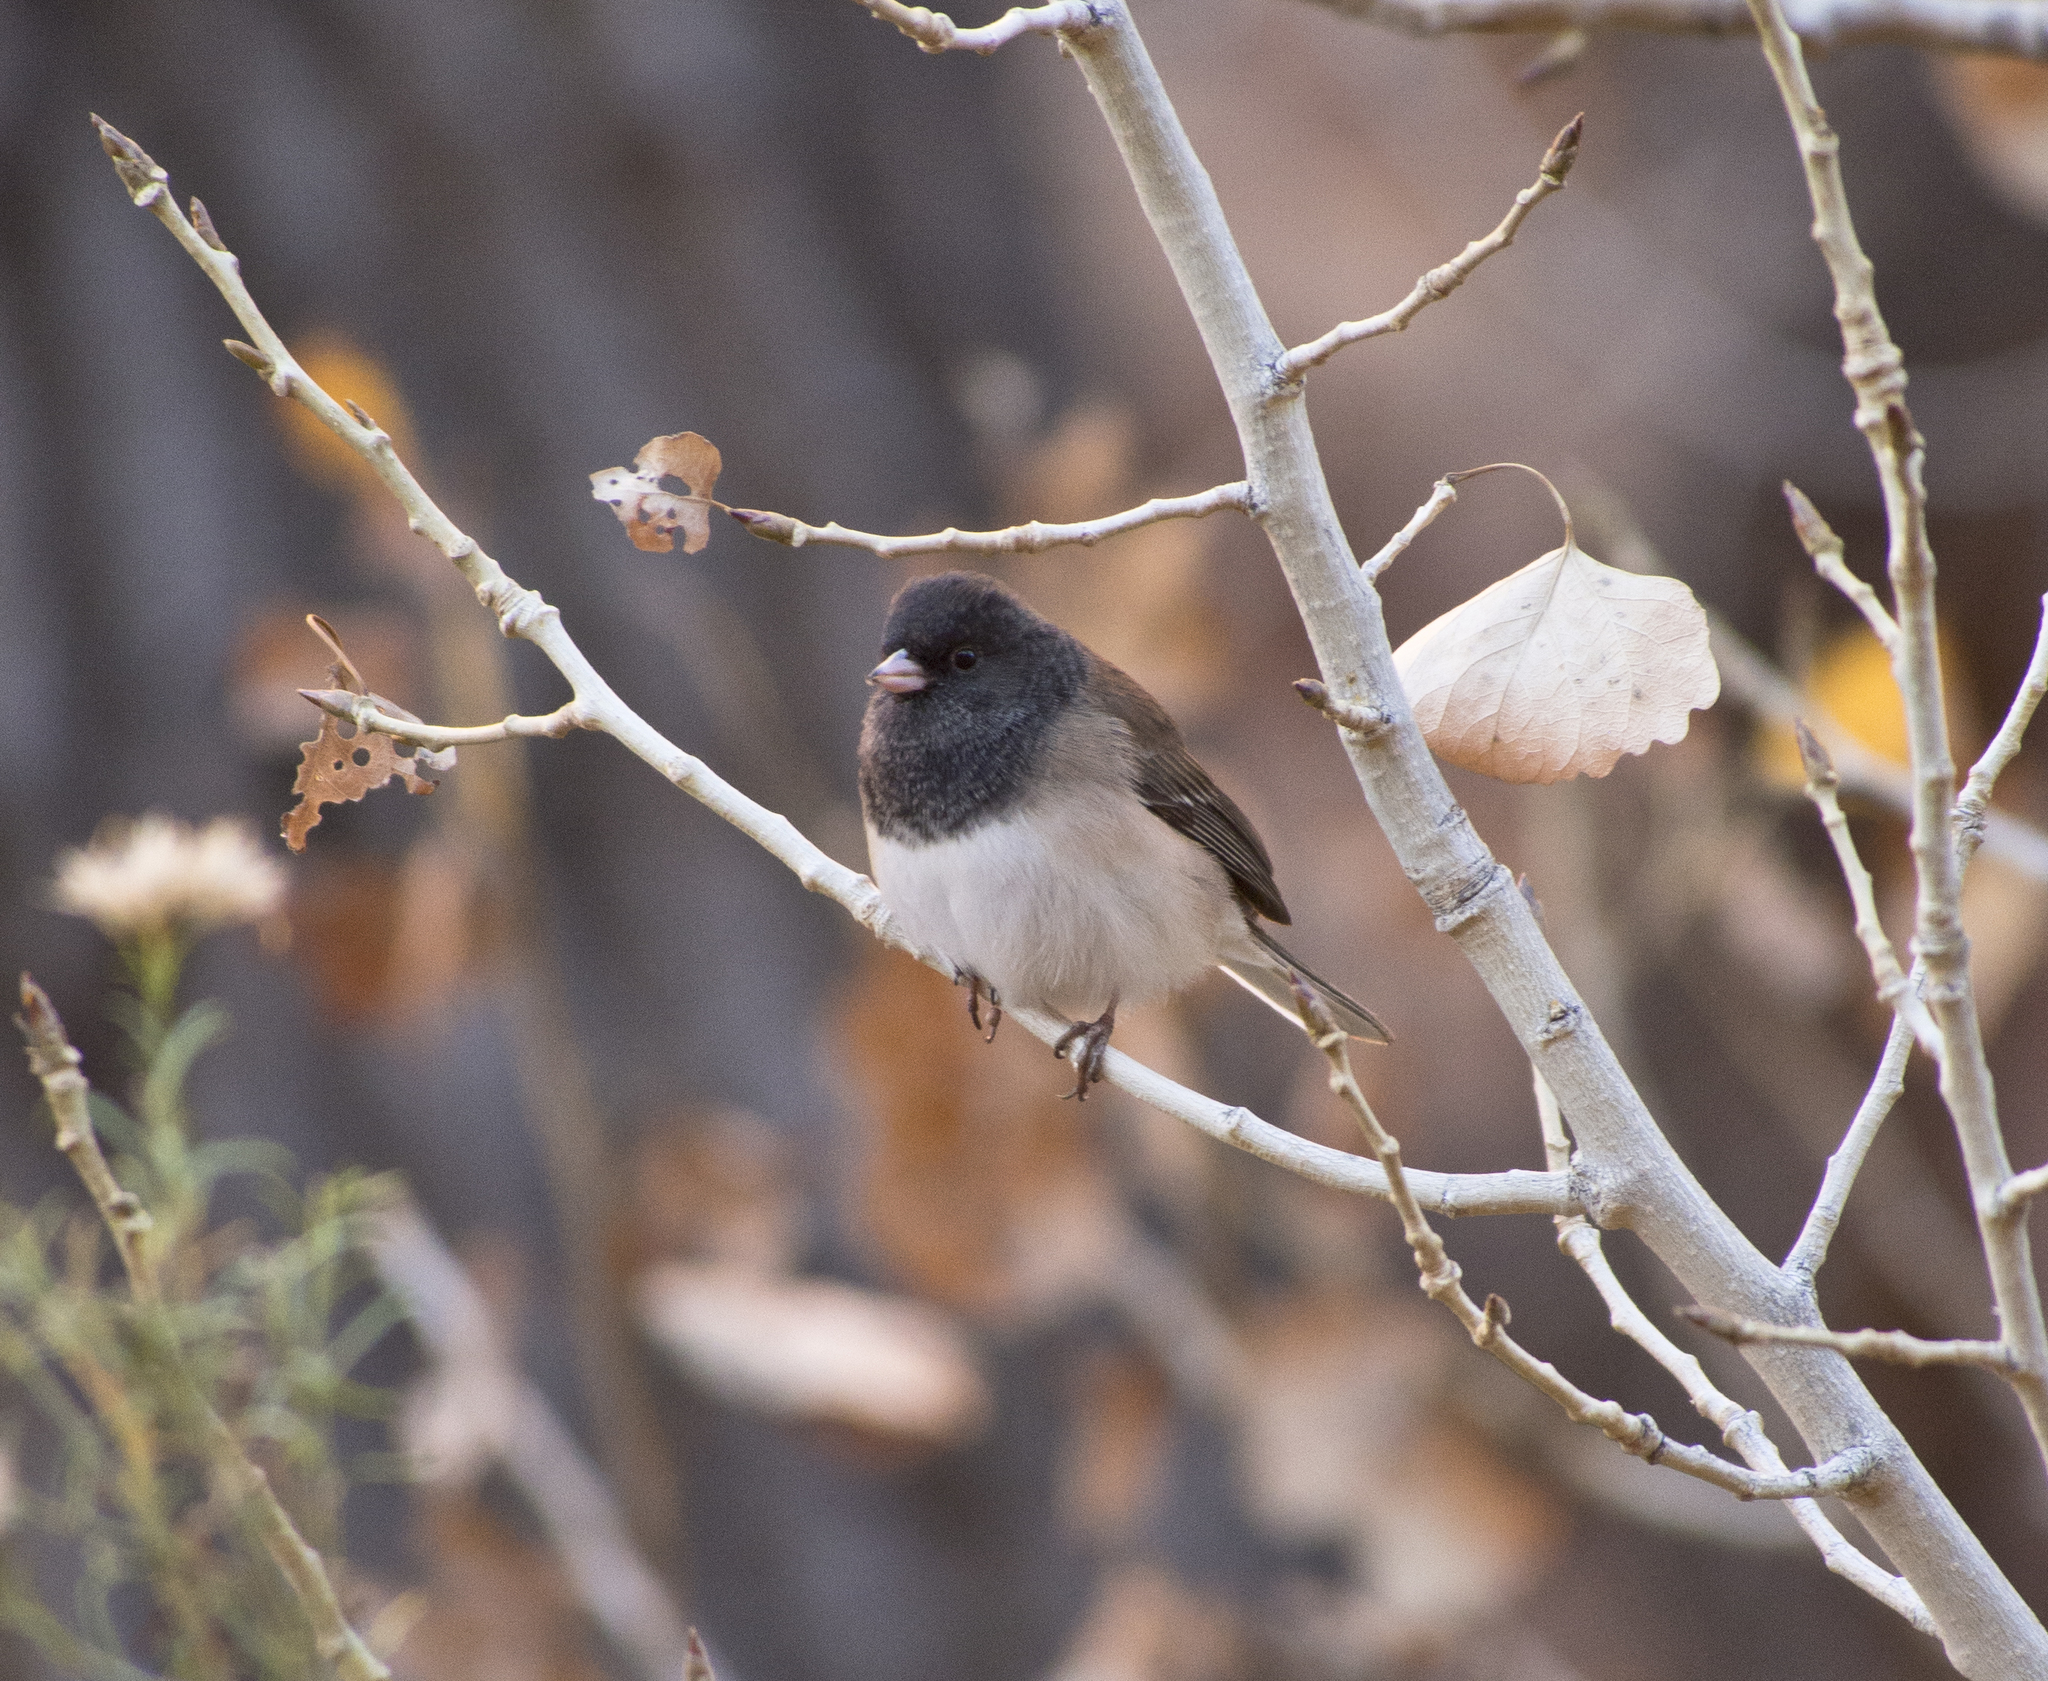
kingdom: Animalia
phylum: Chordata
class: Aves
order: Passeriformes
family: Passerellidae
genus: Junco
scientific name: Junco hyemalis
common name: Dark-eyed junco
